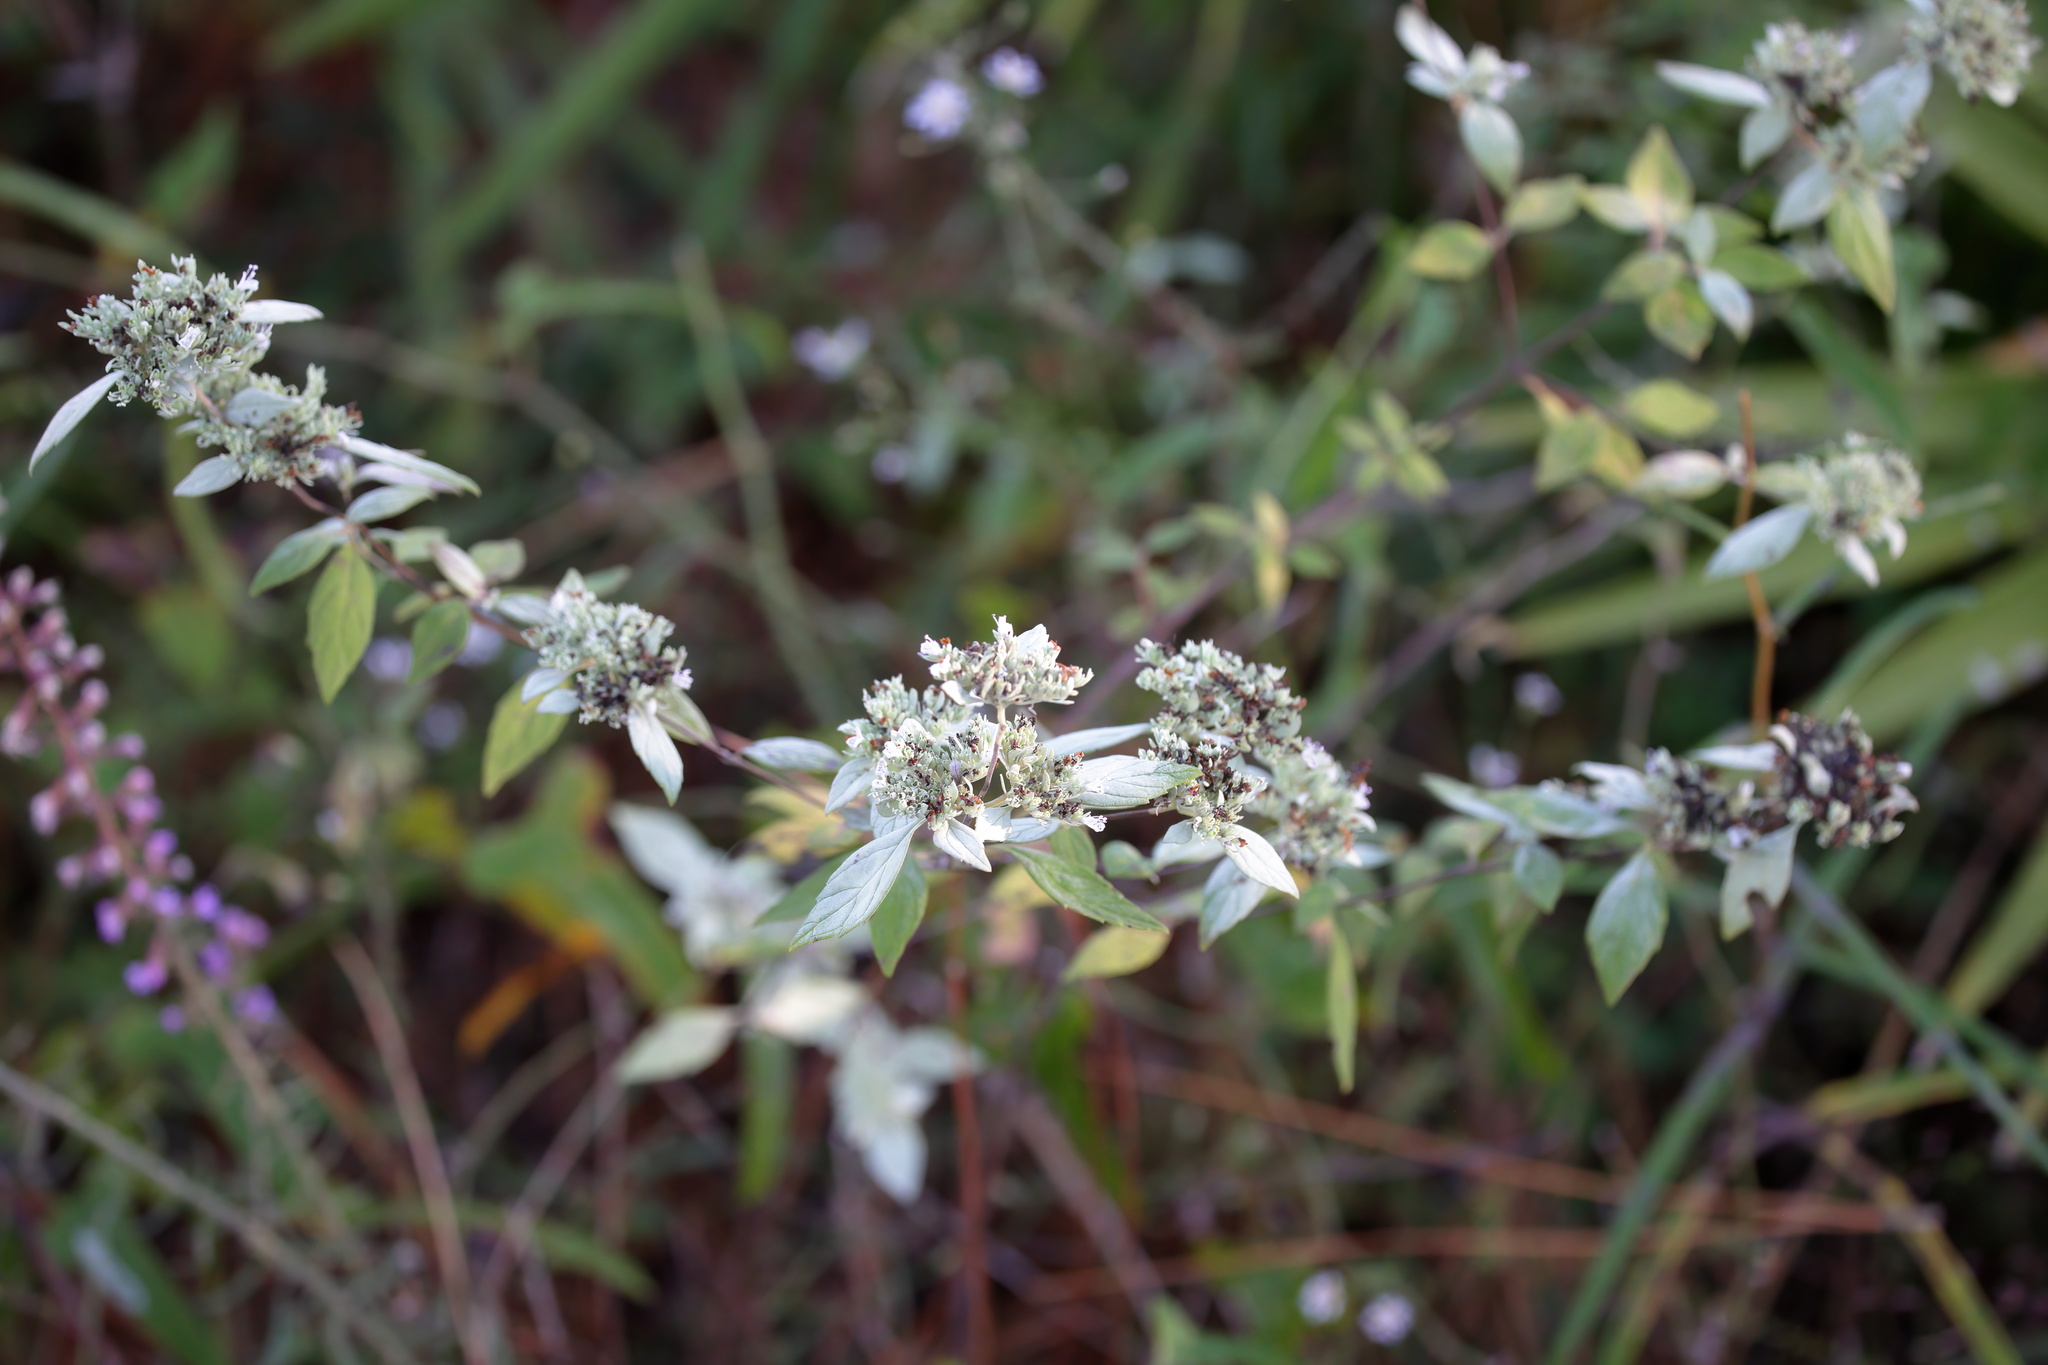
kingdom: Plantae
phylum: Tracheophyta
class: Magnoliopsida
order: Lamiales
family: Lamiaceae
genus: Pycnanthemum
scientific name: Pycnanthemum albescens
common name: White-leaf mountain-mint
